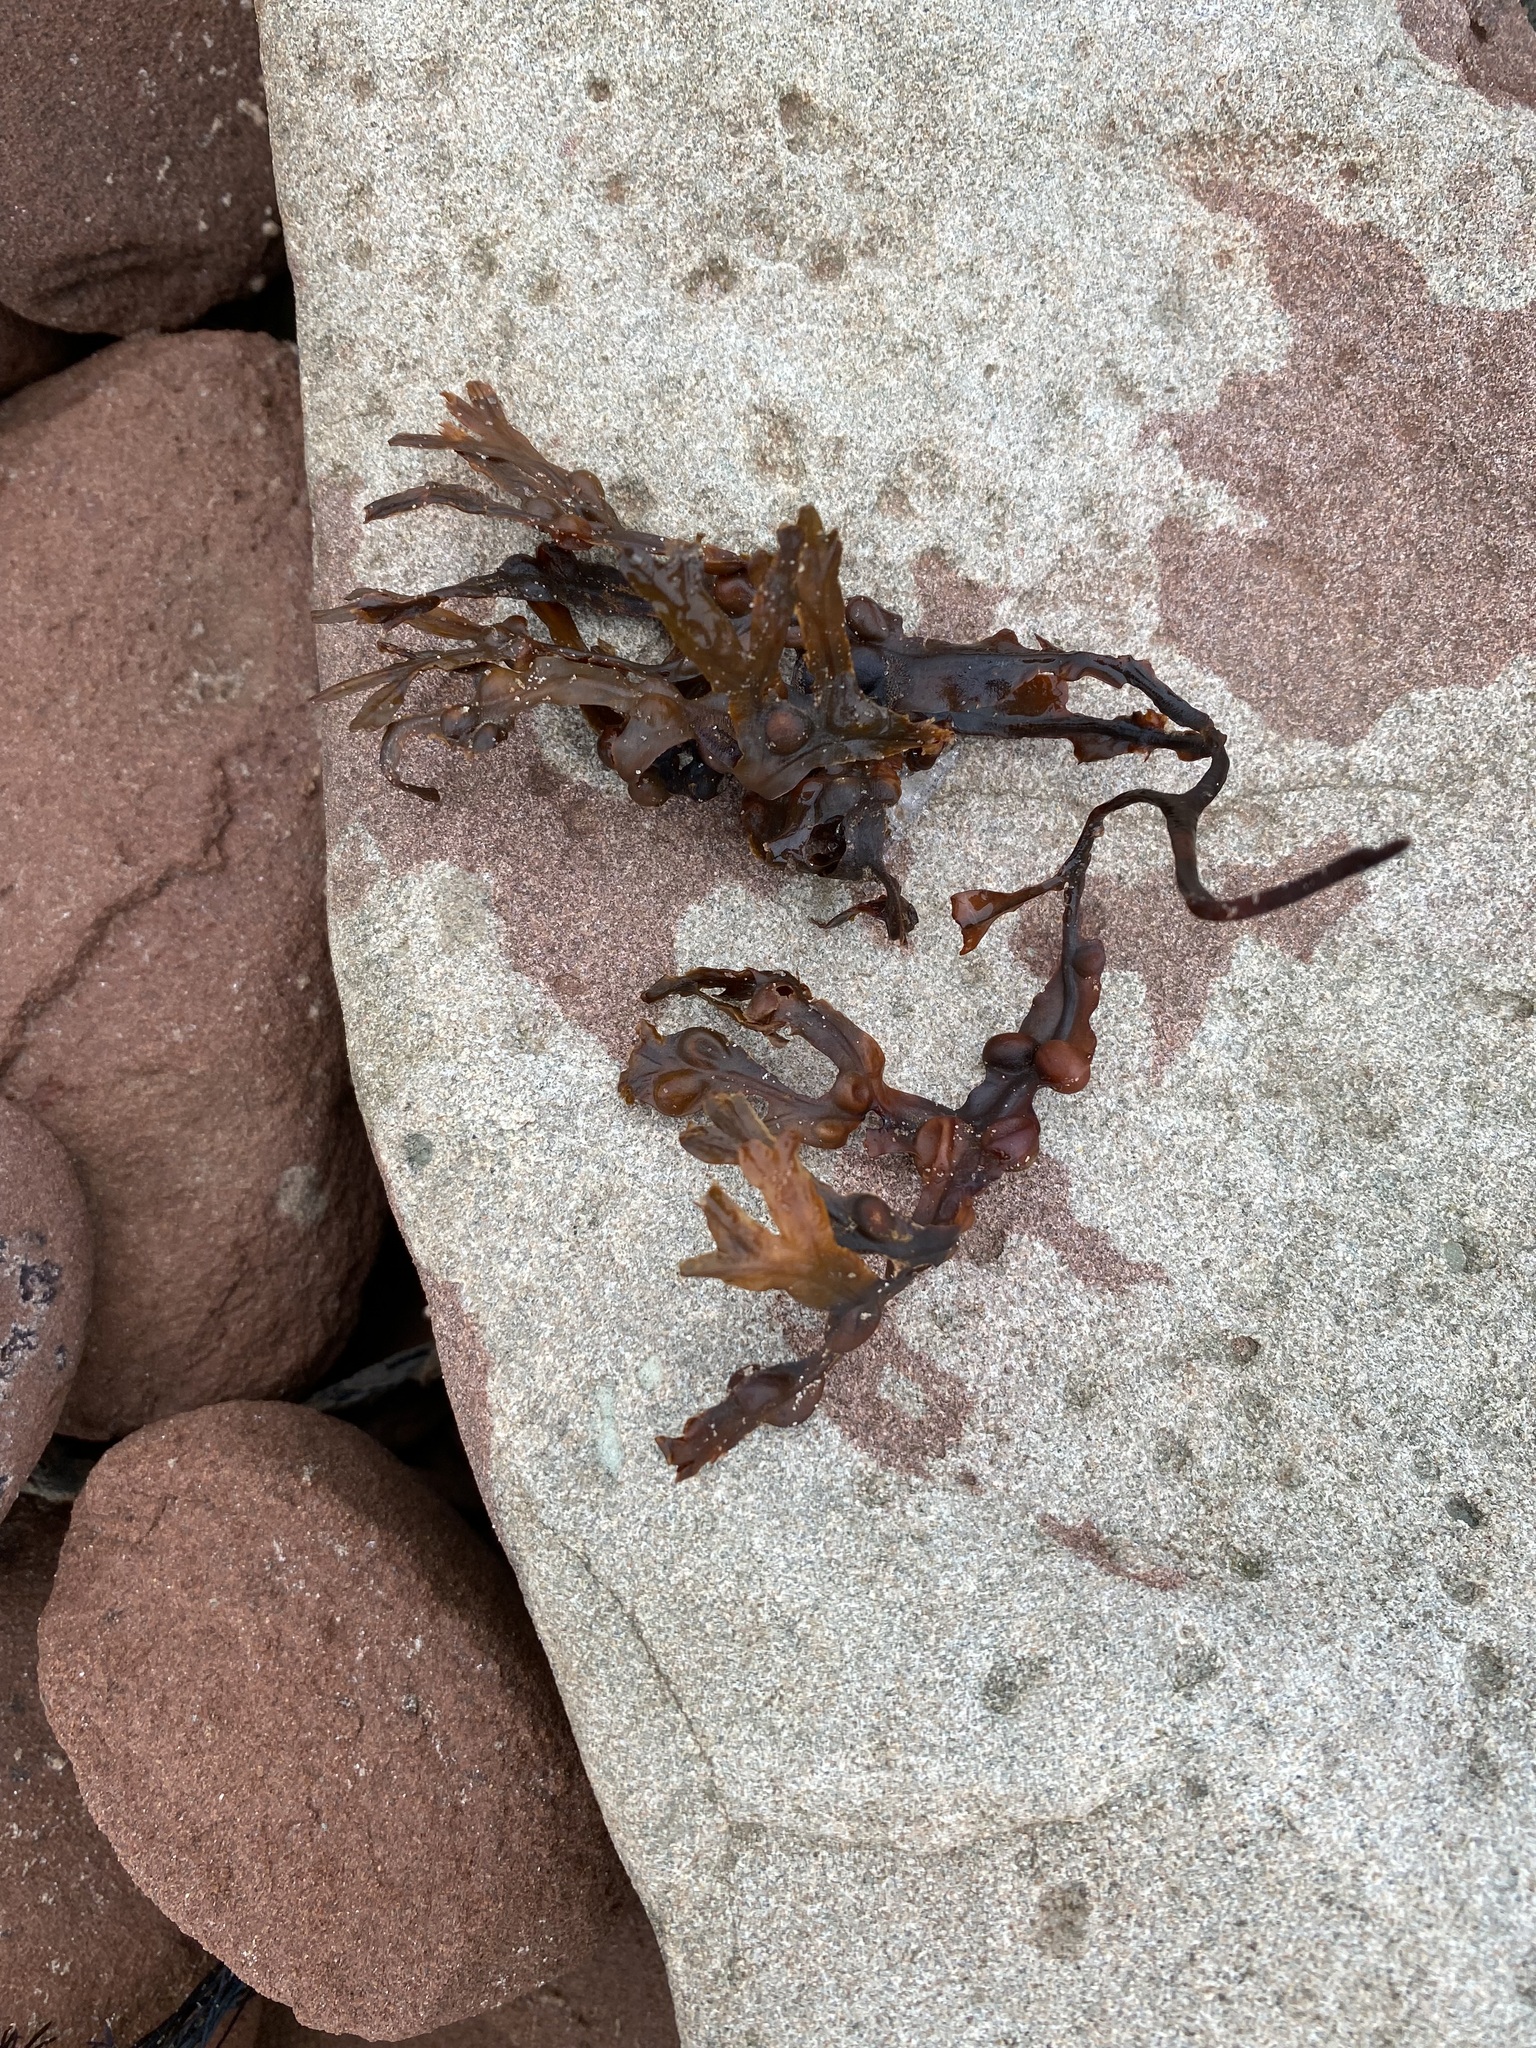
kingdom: Chromista
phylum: Ochrophyta
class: Phaeophyceae
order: Fucales
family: Fucaceae
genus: Fucus
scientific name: Fucus vesiculosus
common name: Bladder wrack
